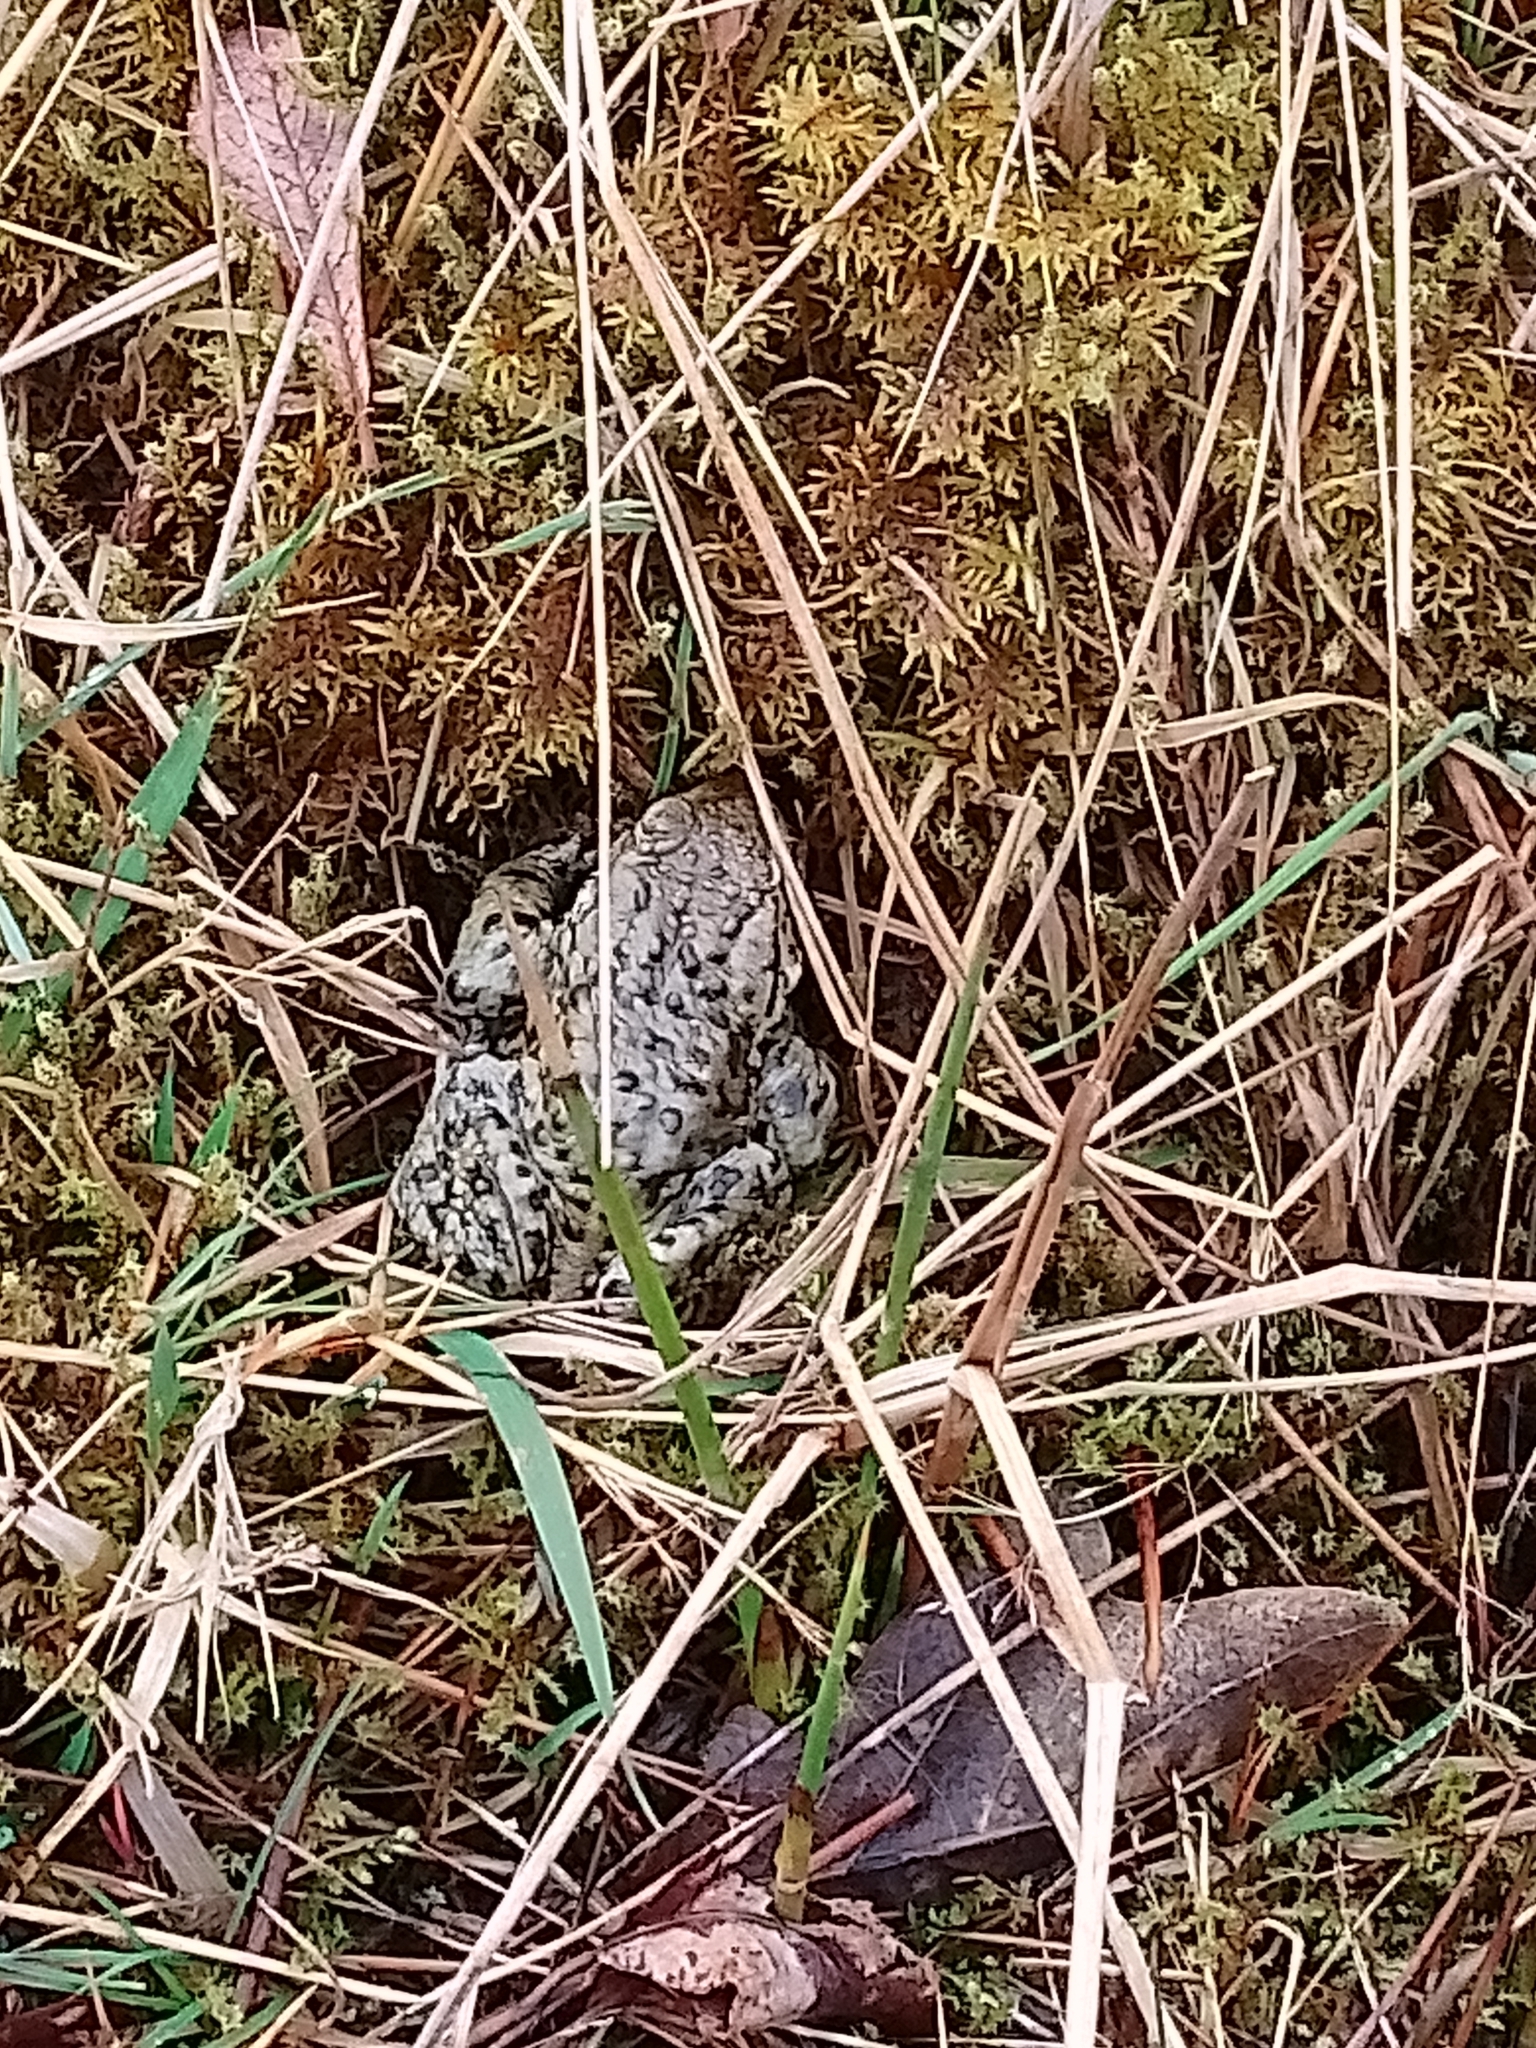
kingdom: Animalia
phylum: Chordata
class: Amphibia
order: Anura
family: Bufonidae
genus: Bufo
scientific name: Bufo bufo
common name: Common toad
